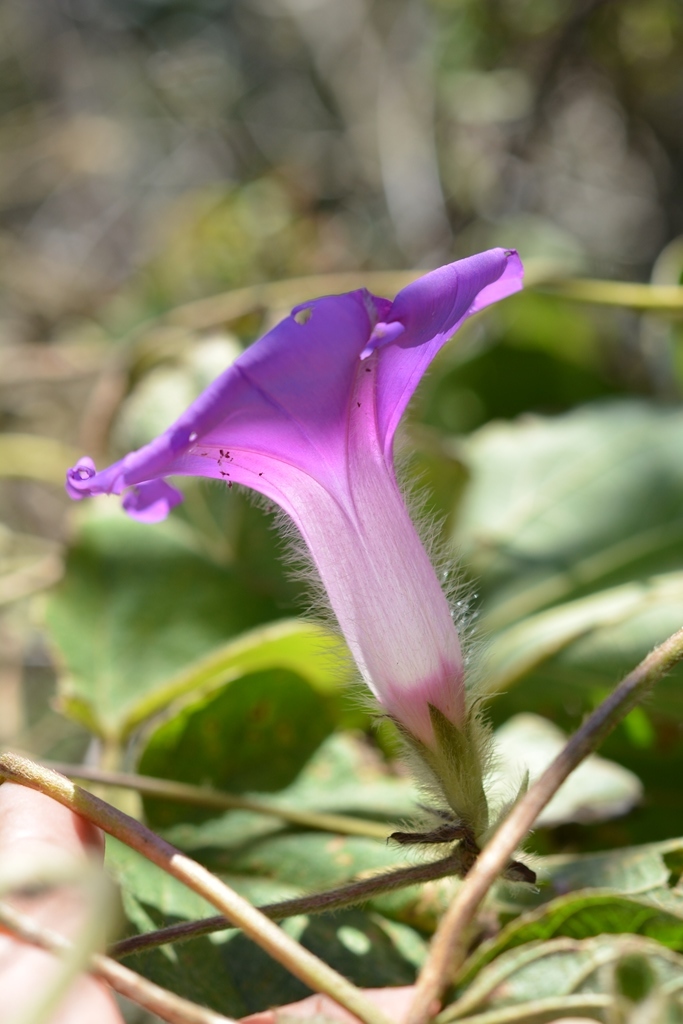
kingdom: Plantae
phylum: Tracheophyta
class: Magnoliopsida
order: Solanales
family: Convolvulaceae
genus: Ipomoea
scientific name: Ipomoea villifera
